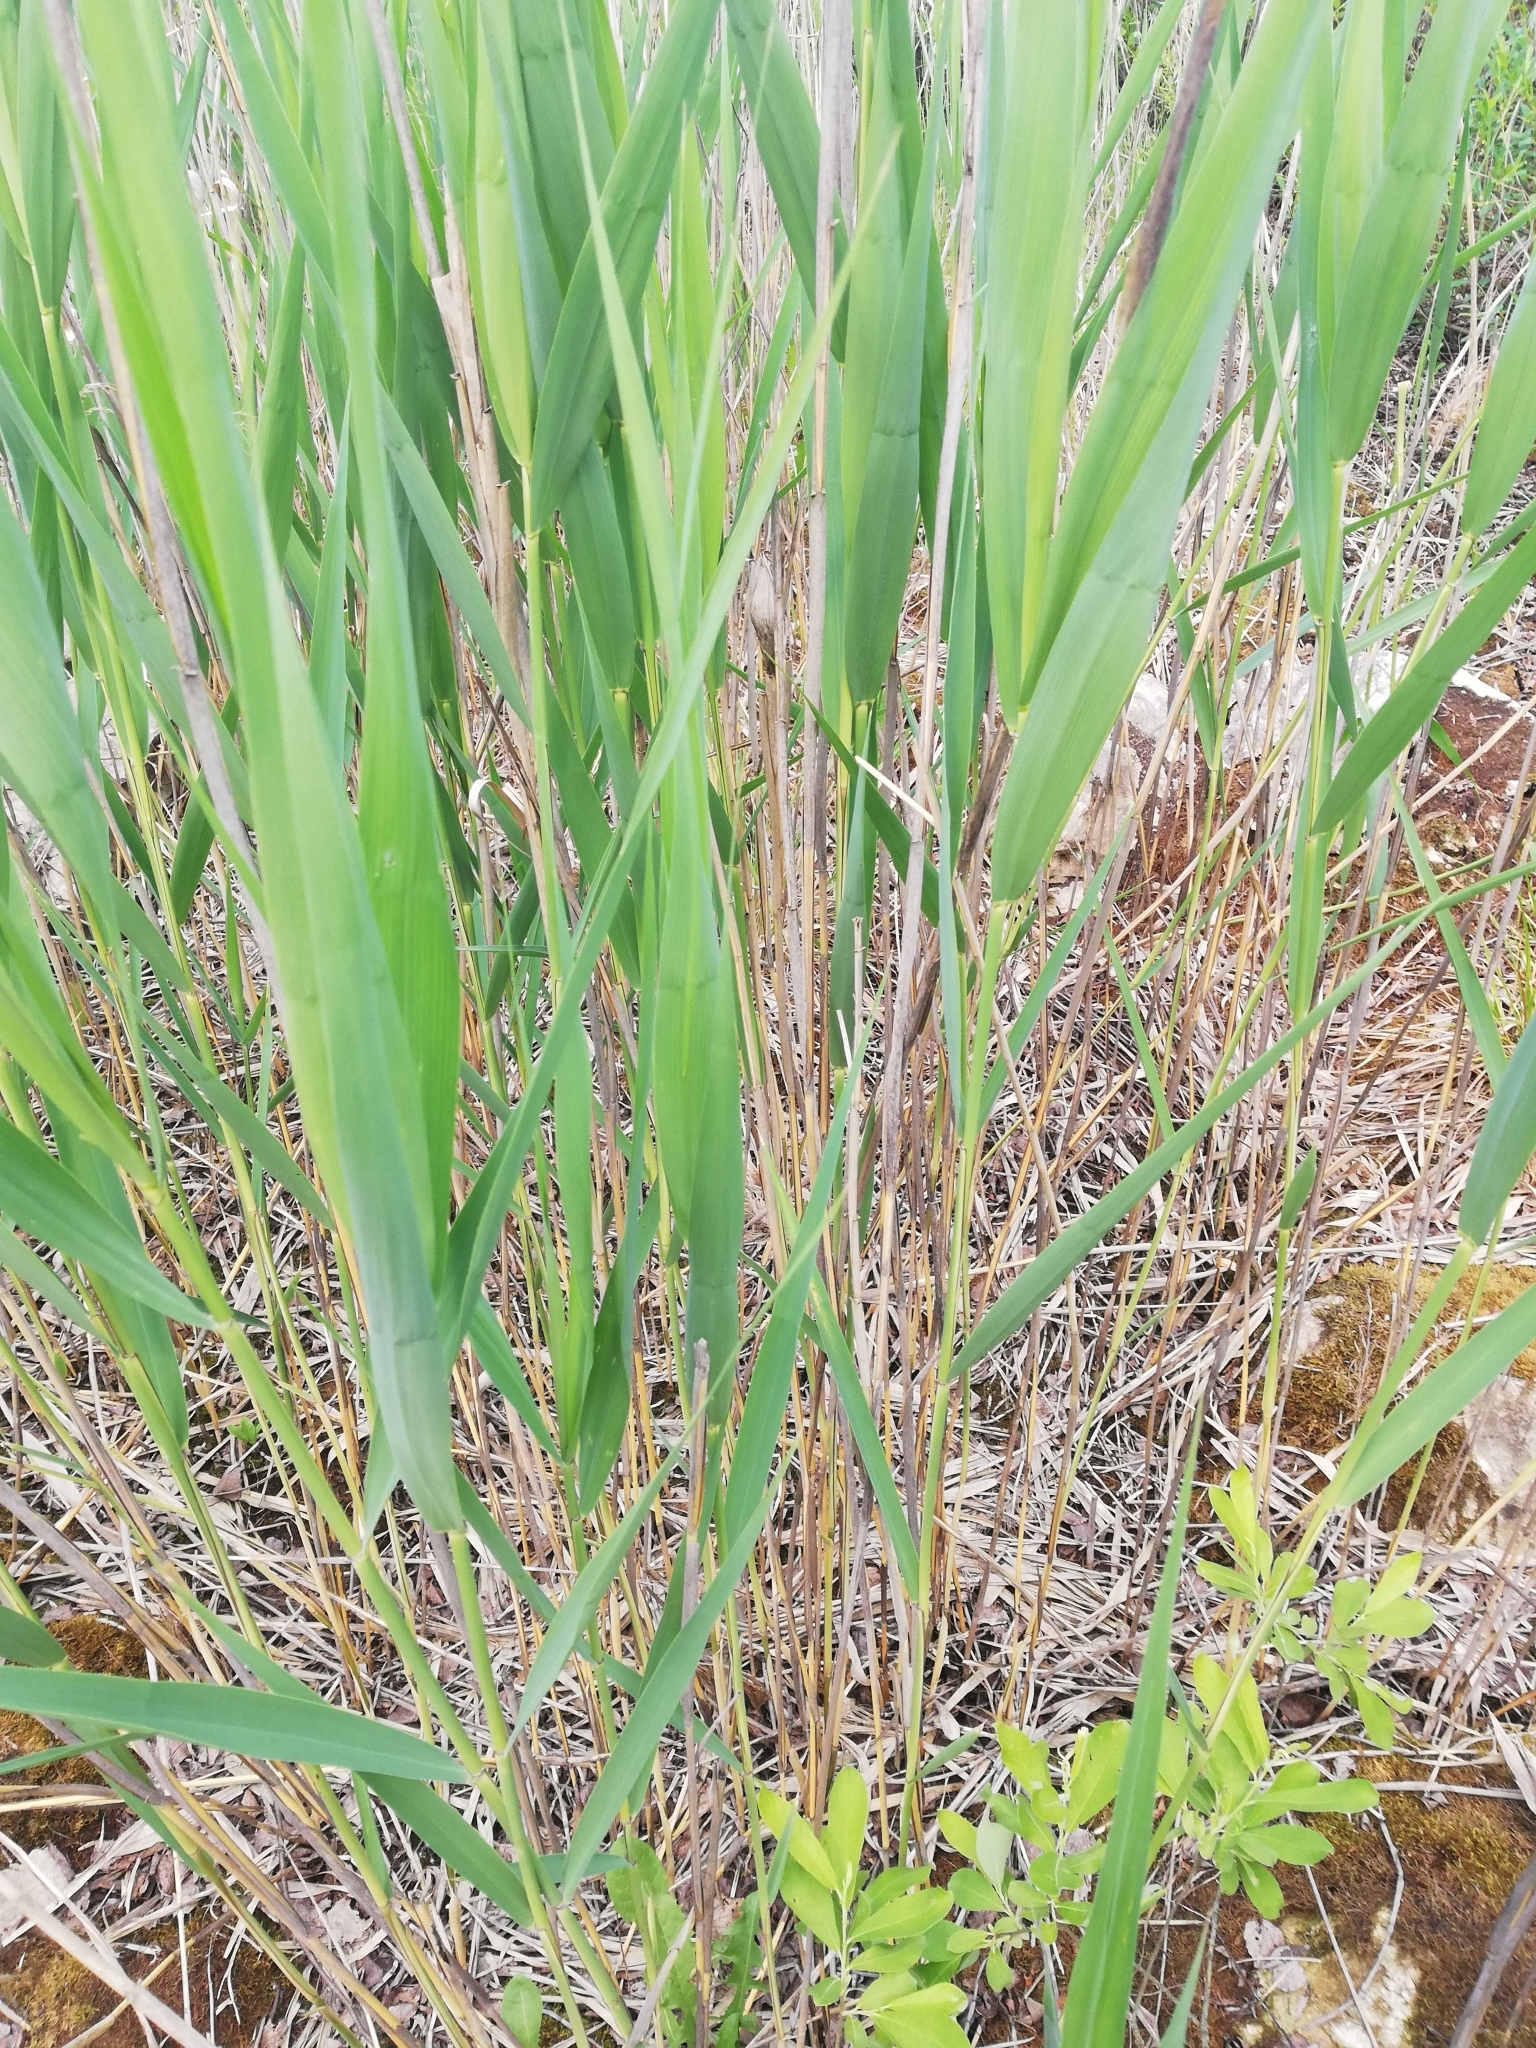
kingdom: Plantae
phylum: Tracheophyta
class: Liliopsida
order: Poales
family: Poaceae
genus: Phragmites
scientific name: Phragmites australis
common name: Common reed
